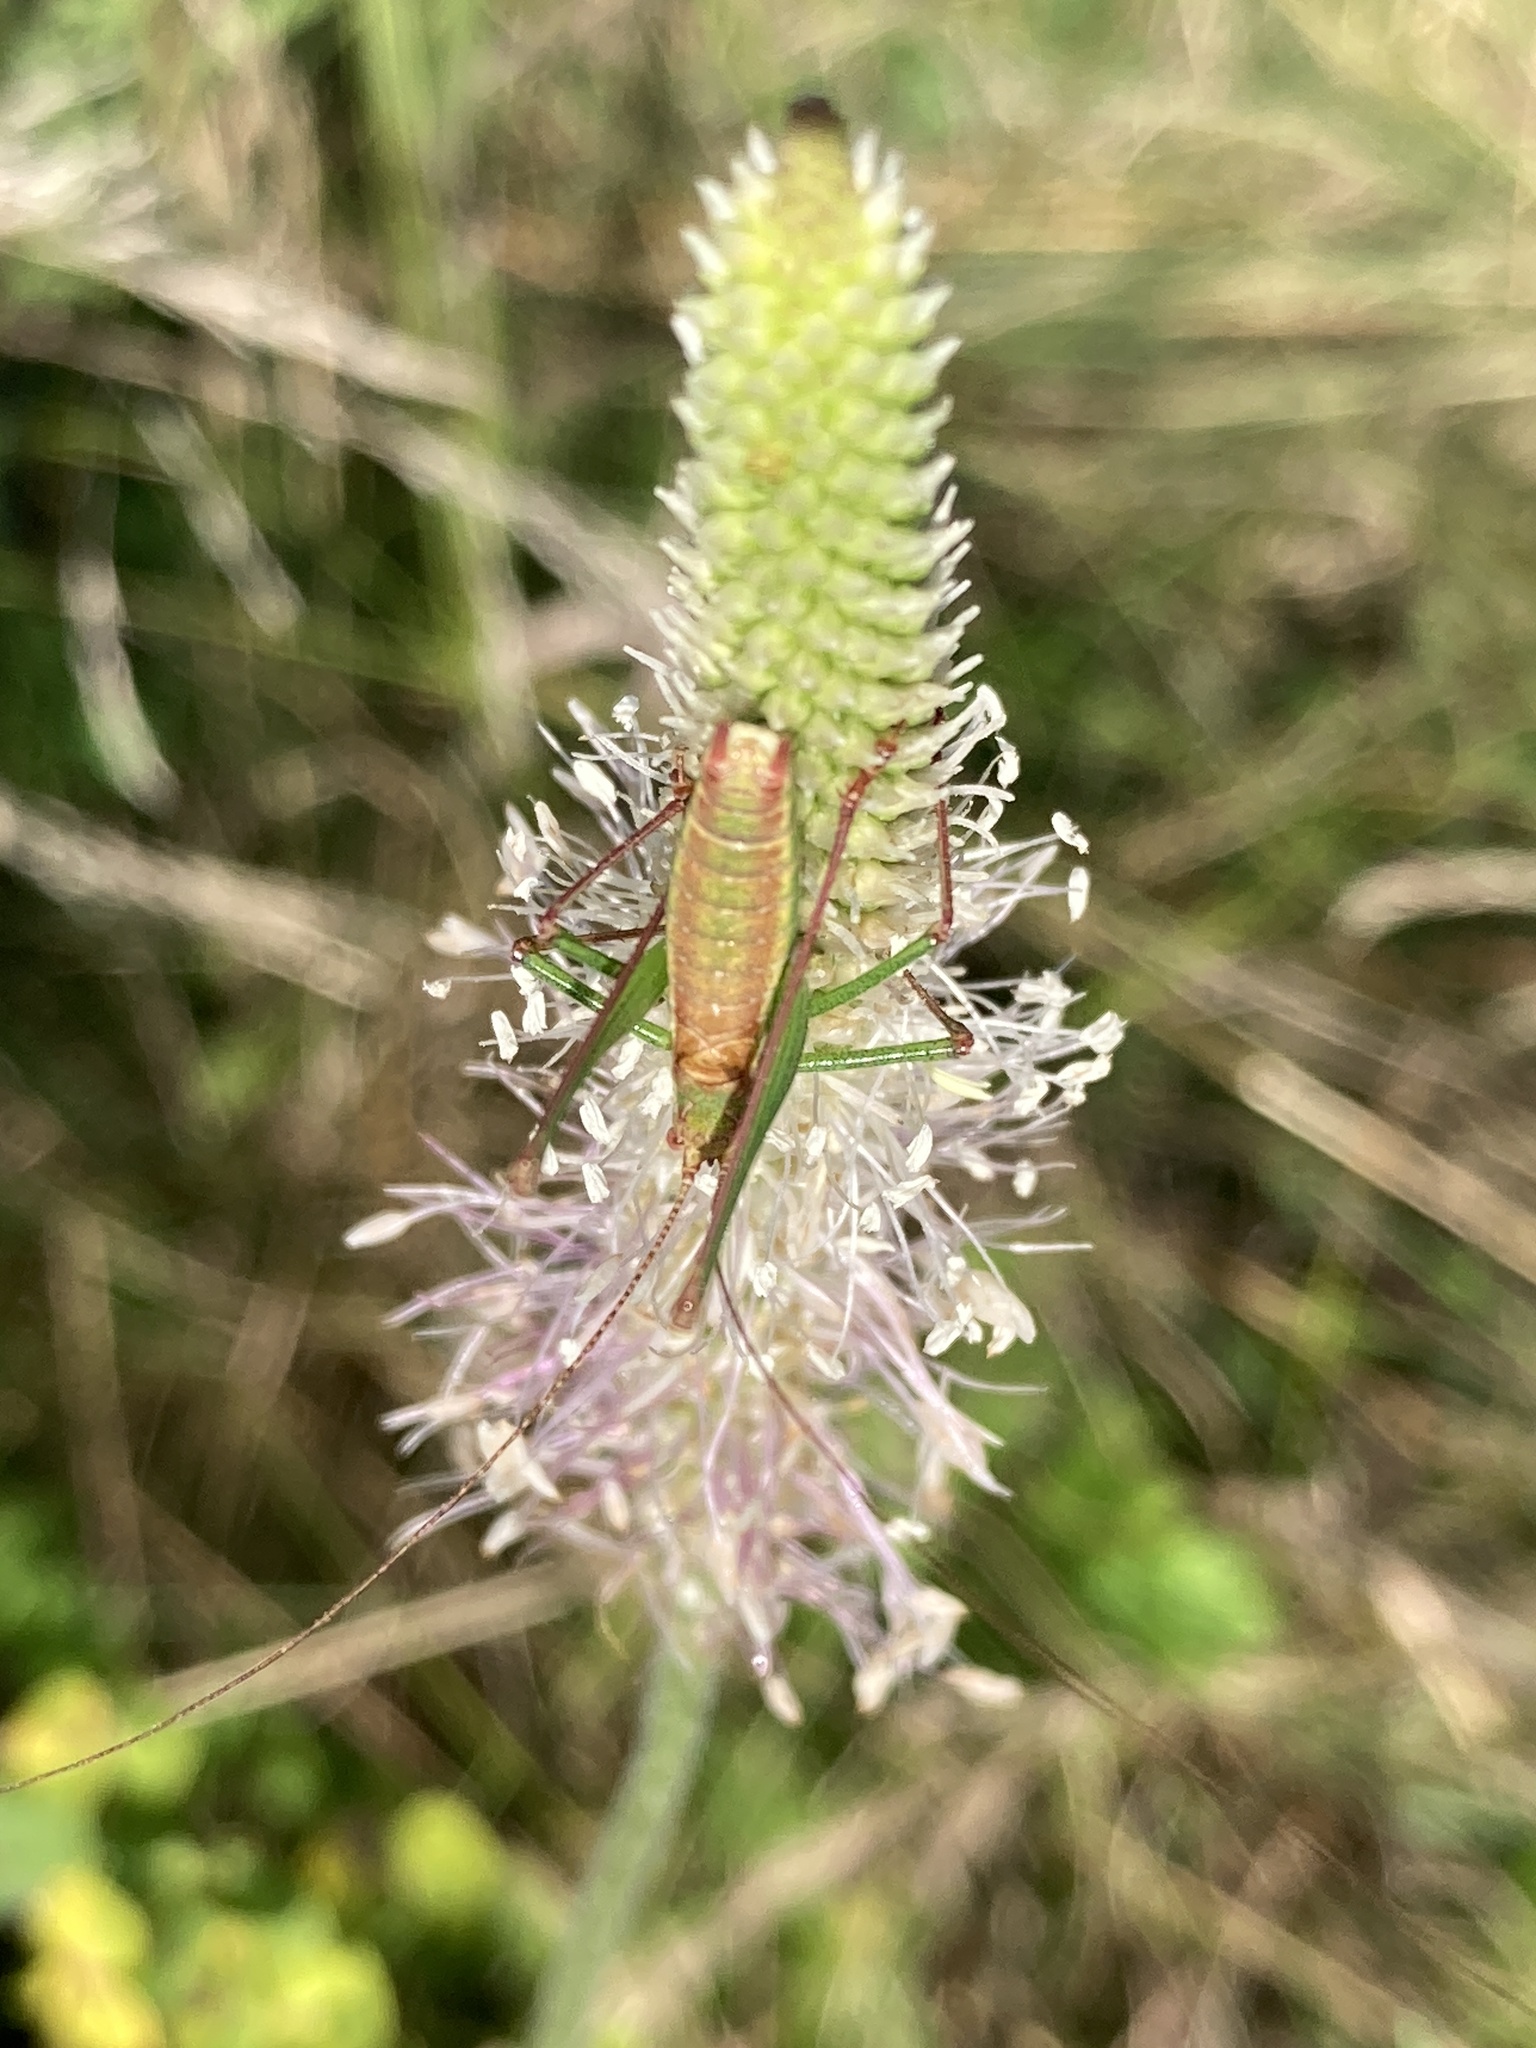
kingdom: Animalia
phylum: Arthropoda
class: Insecta
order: Orthoptera
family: Tettigoniidae
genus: Leptophyes
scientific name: Leptophyes albovittata
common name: Striped bush-cricket
